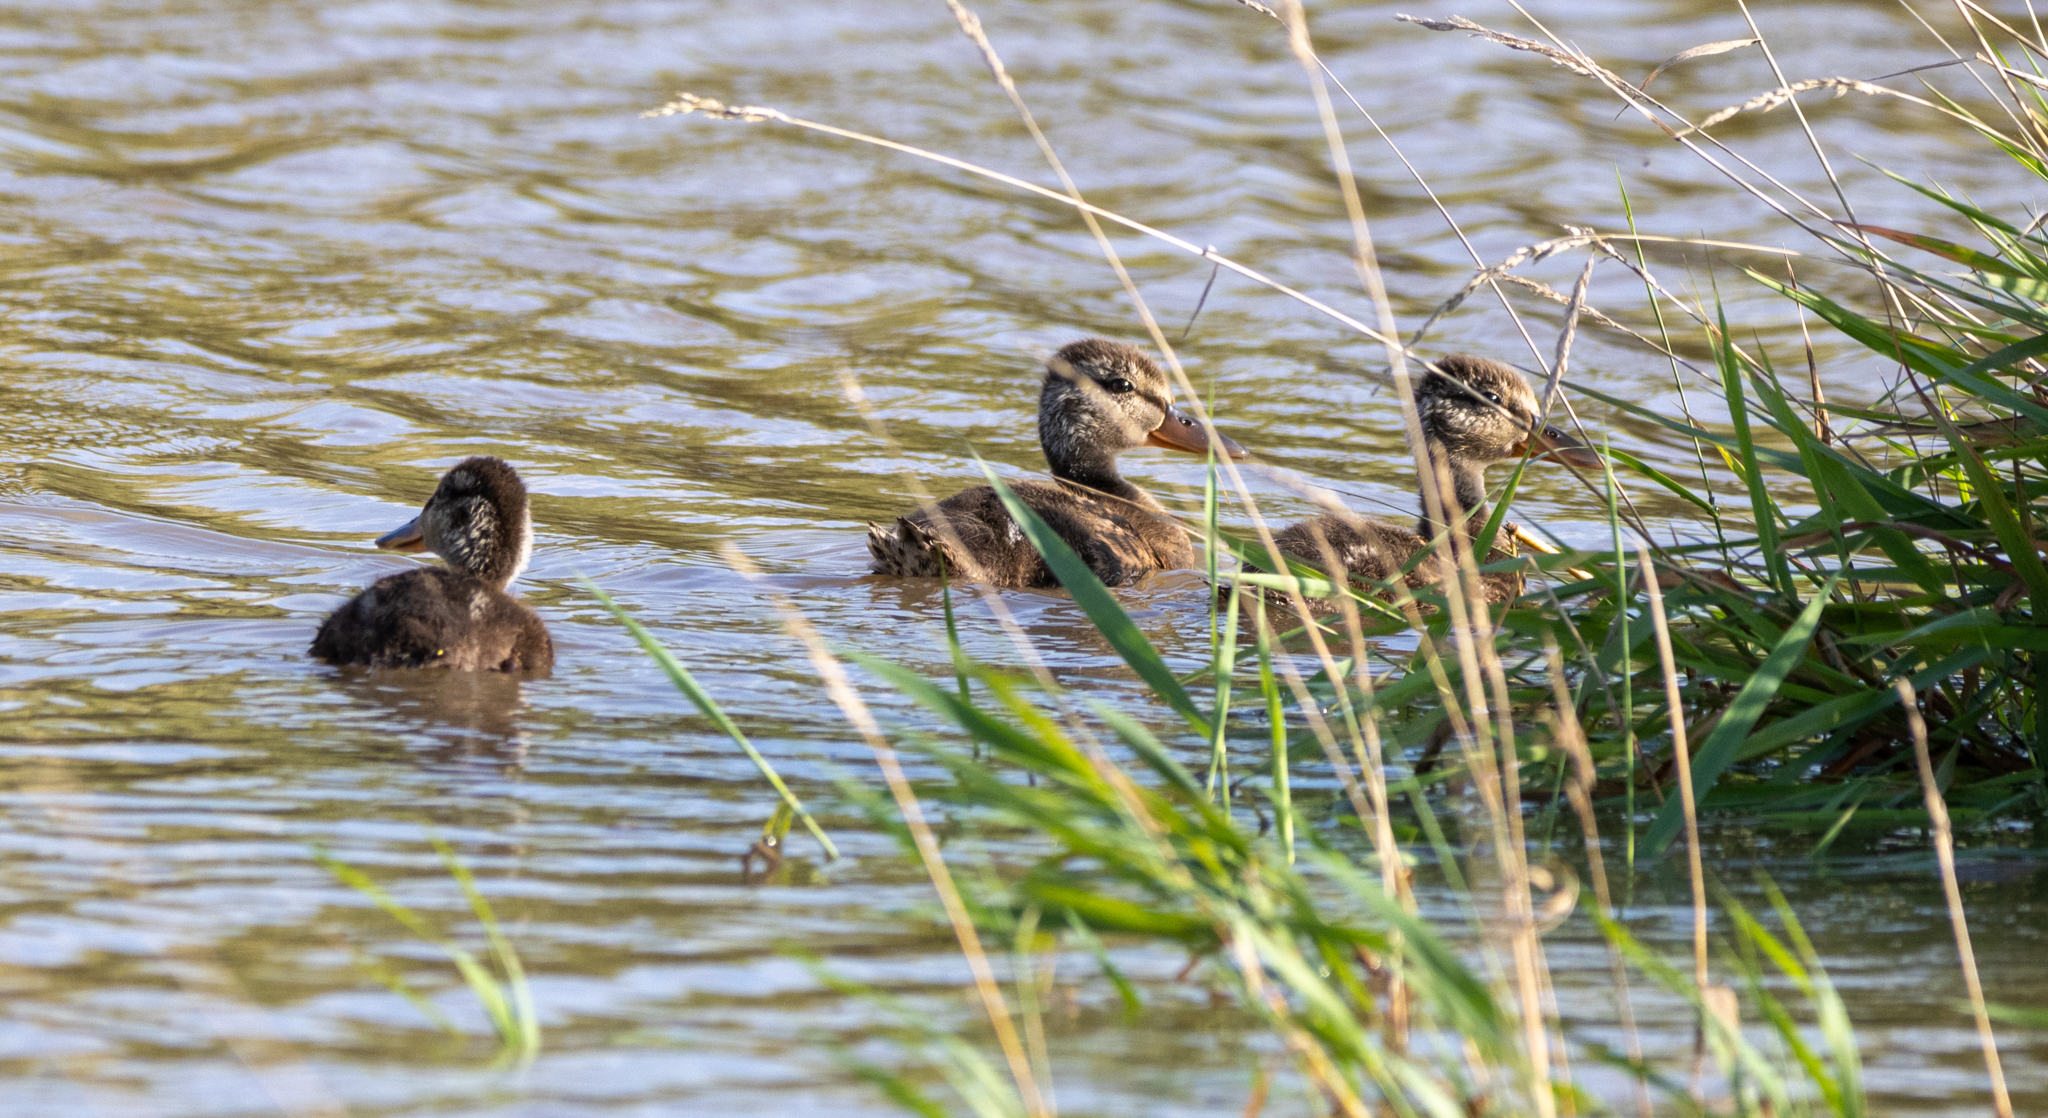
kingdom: Animalia
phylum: Chordata
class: Aves
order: Anseriformes
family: Anatidae
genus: Anas
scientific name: Anas platyrhynchos
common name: Mallard
